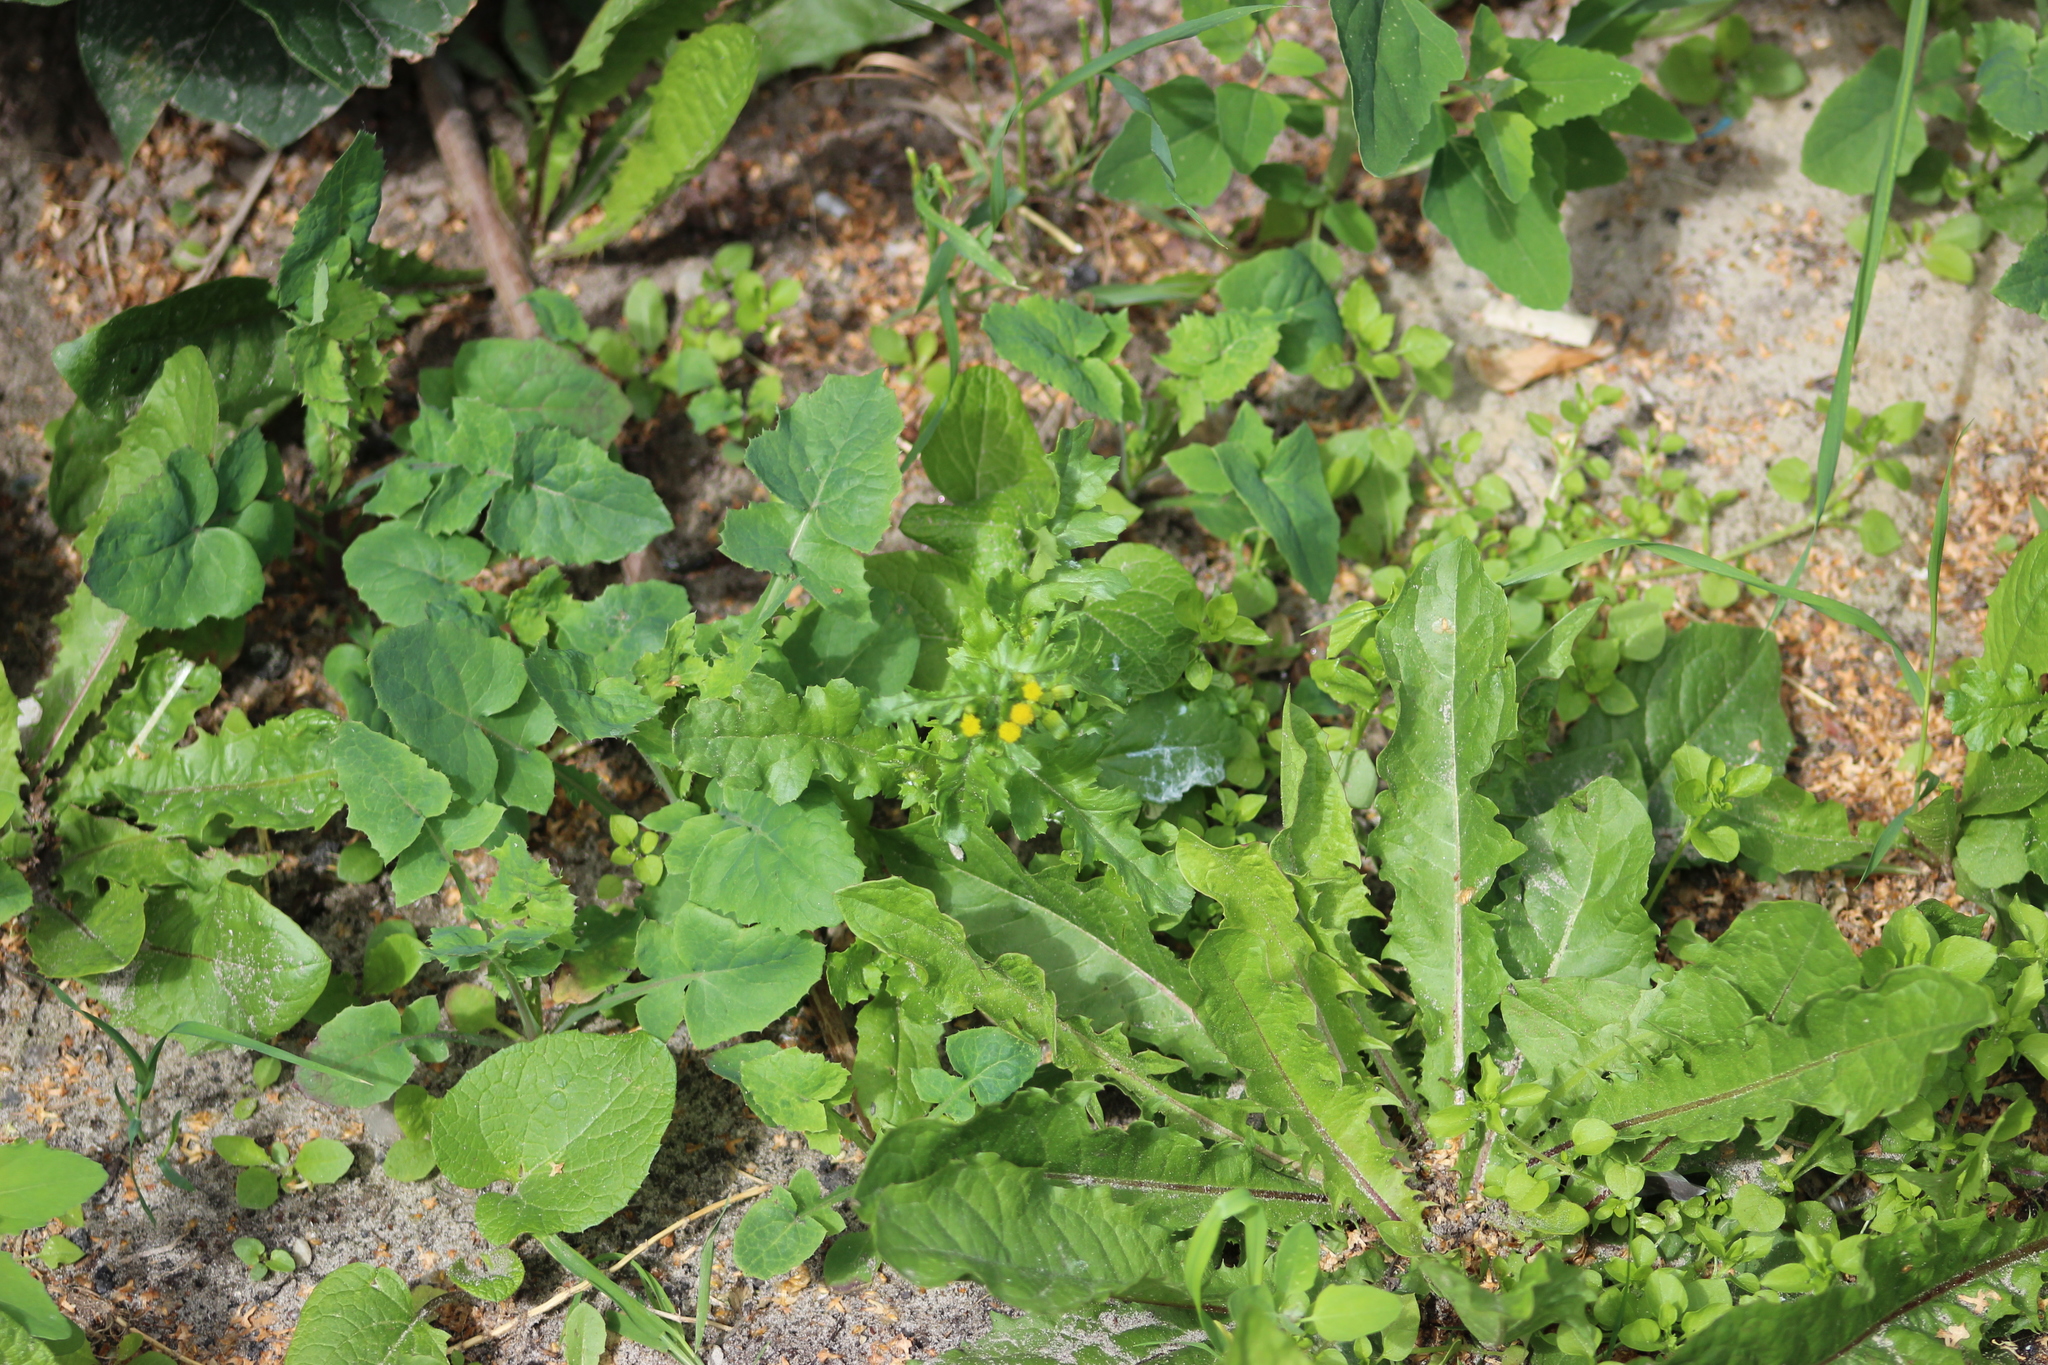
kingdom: Plantae
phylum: Tracheophyta
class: Magnoliopsida
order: Asterales
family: Asteraceae
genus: Senecio
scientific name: Senecio vulgaris
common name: Old-man-in-the-spring
